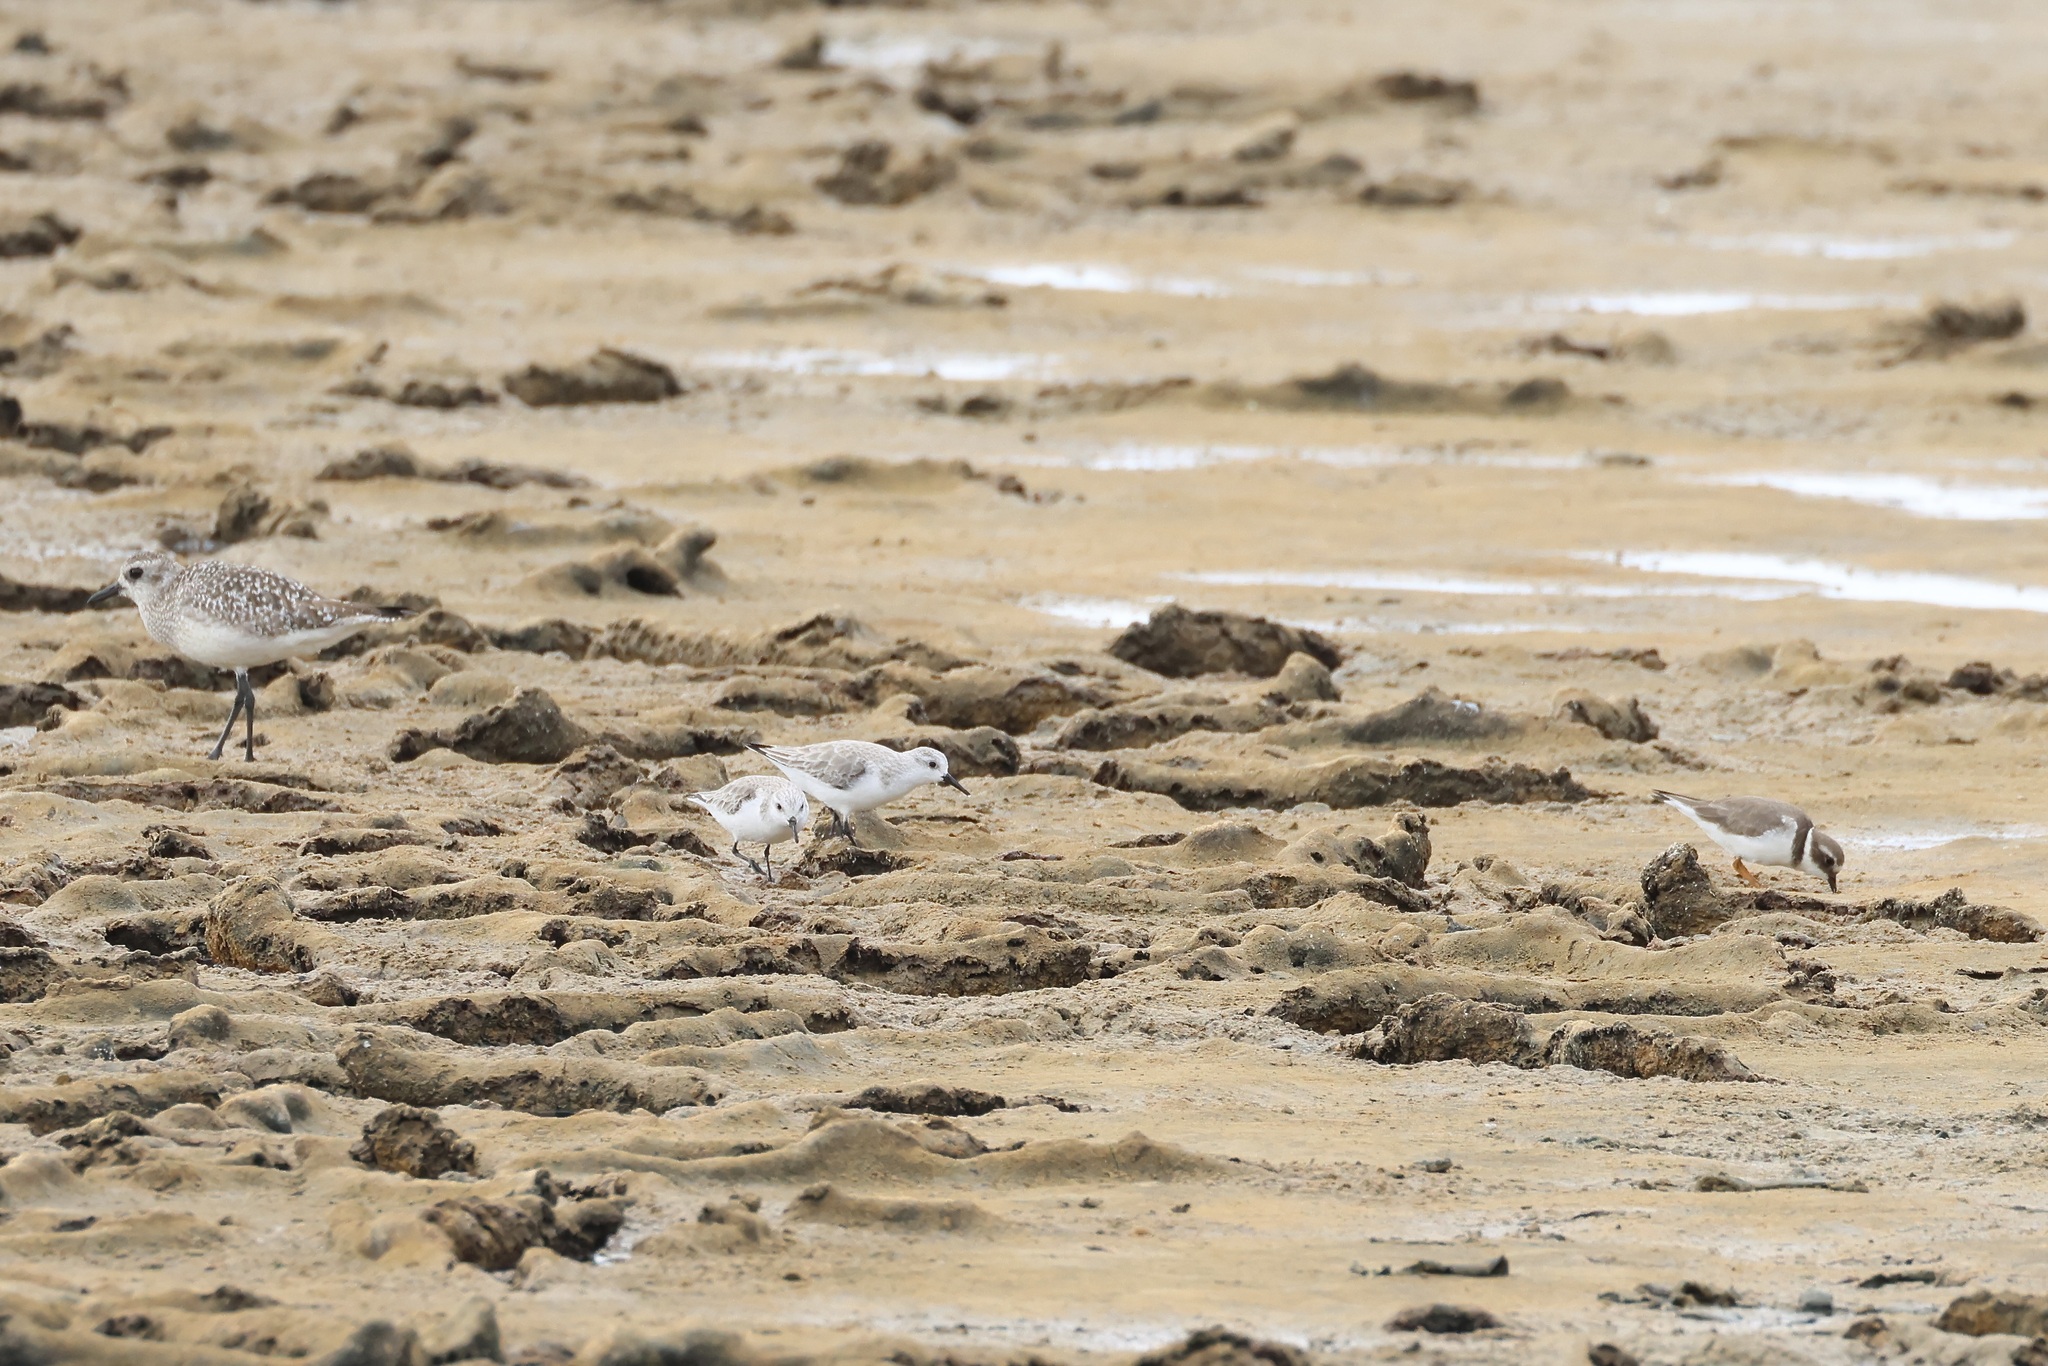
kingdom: Animalia
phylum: Chordata
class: Aves
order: Charadriiformes
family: Scolopacidae
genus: Calidris
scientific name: Calidris alba
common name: Sanderling
